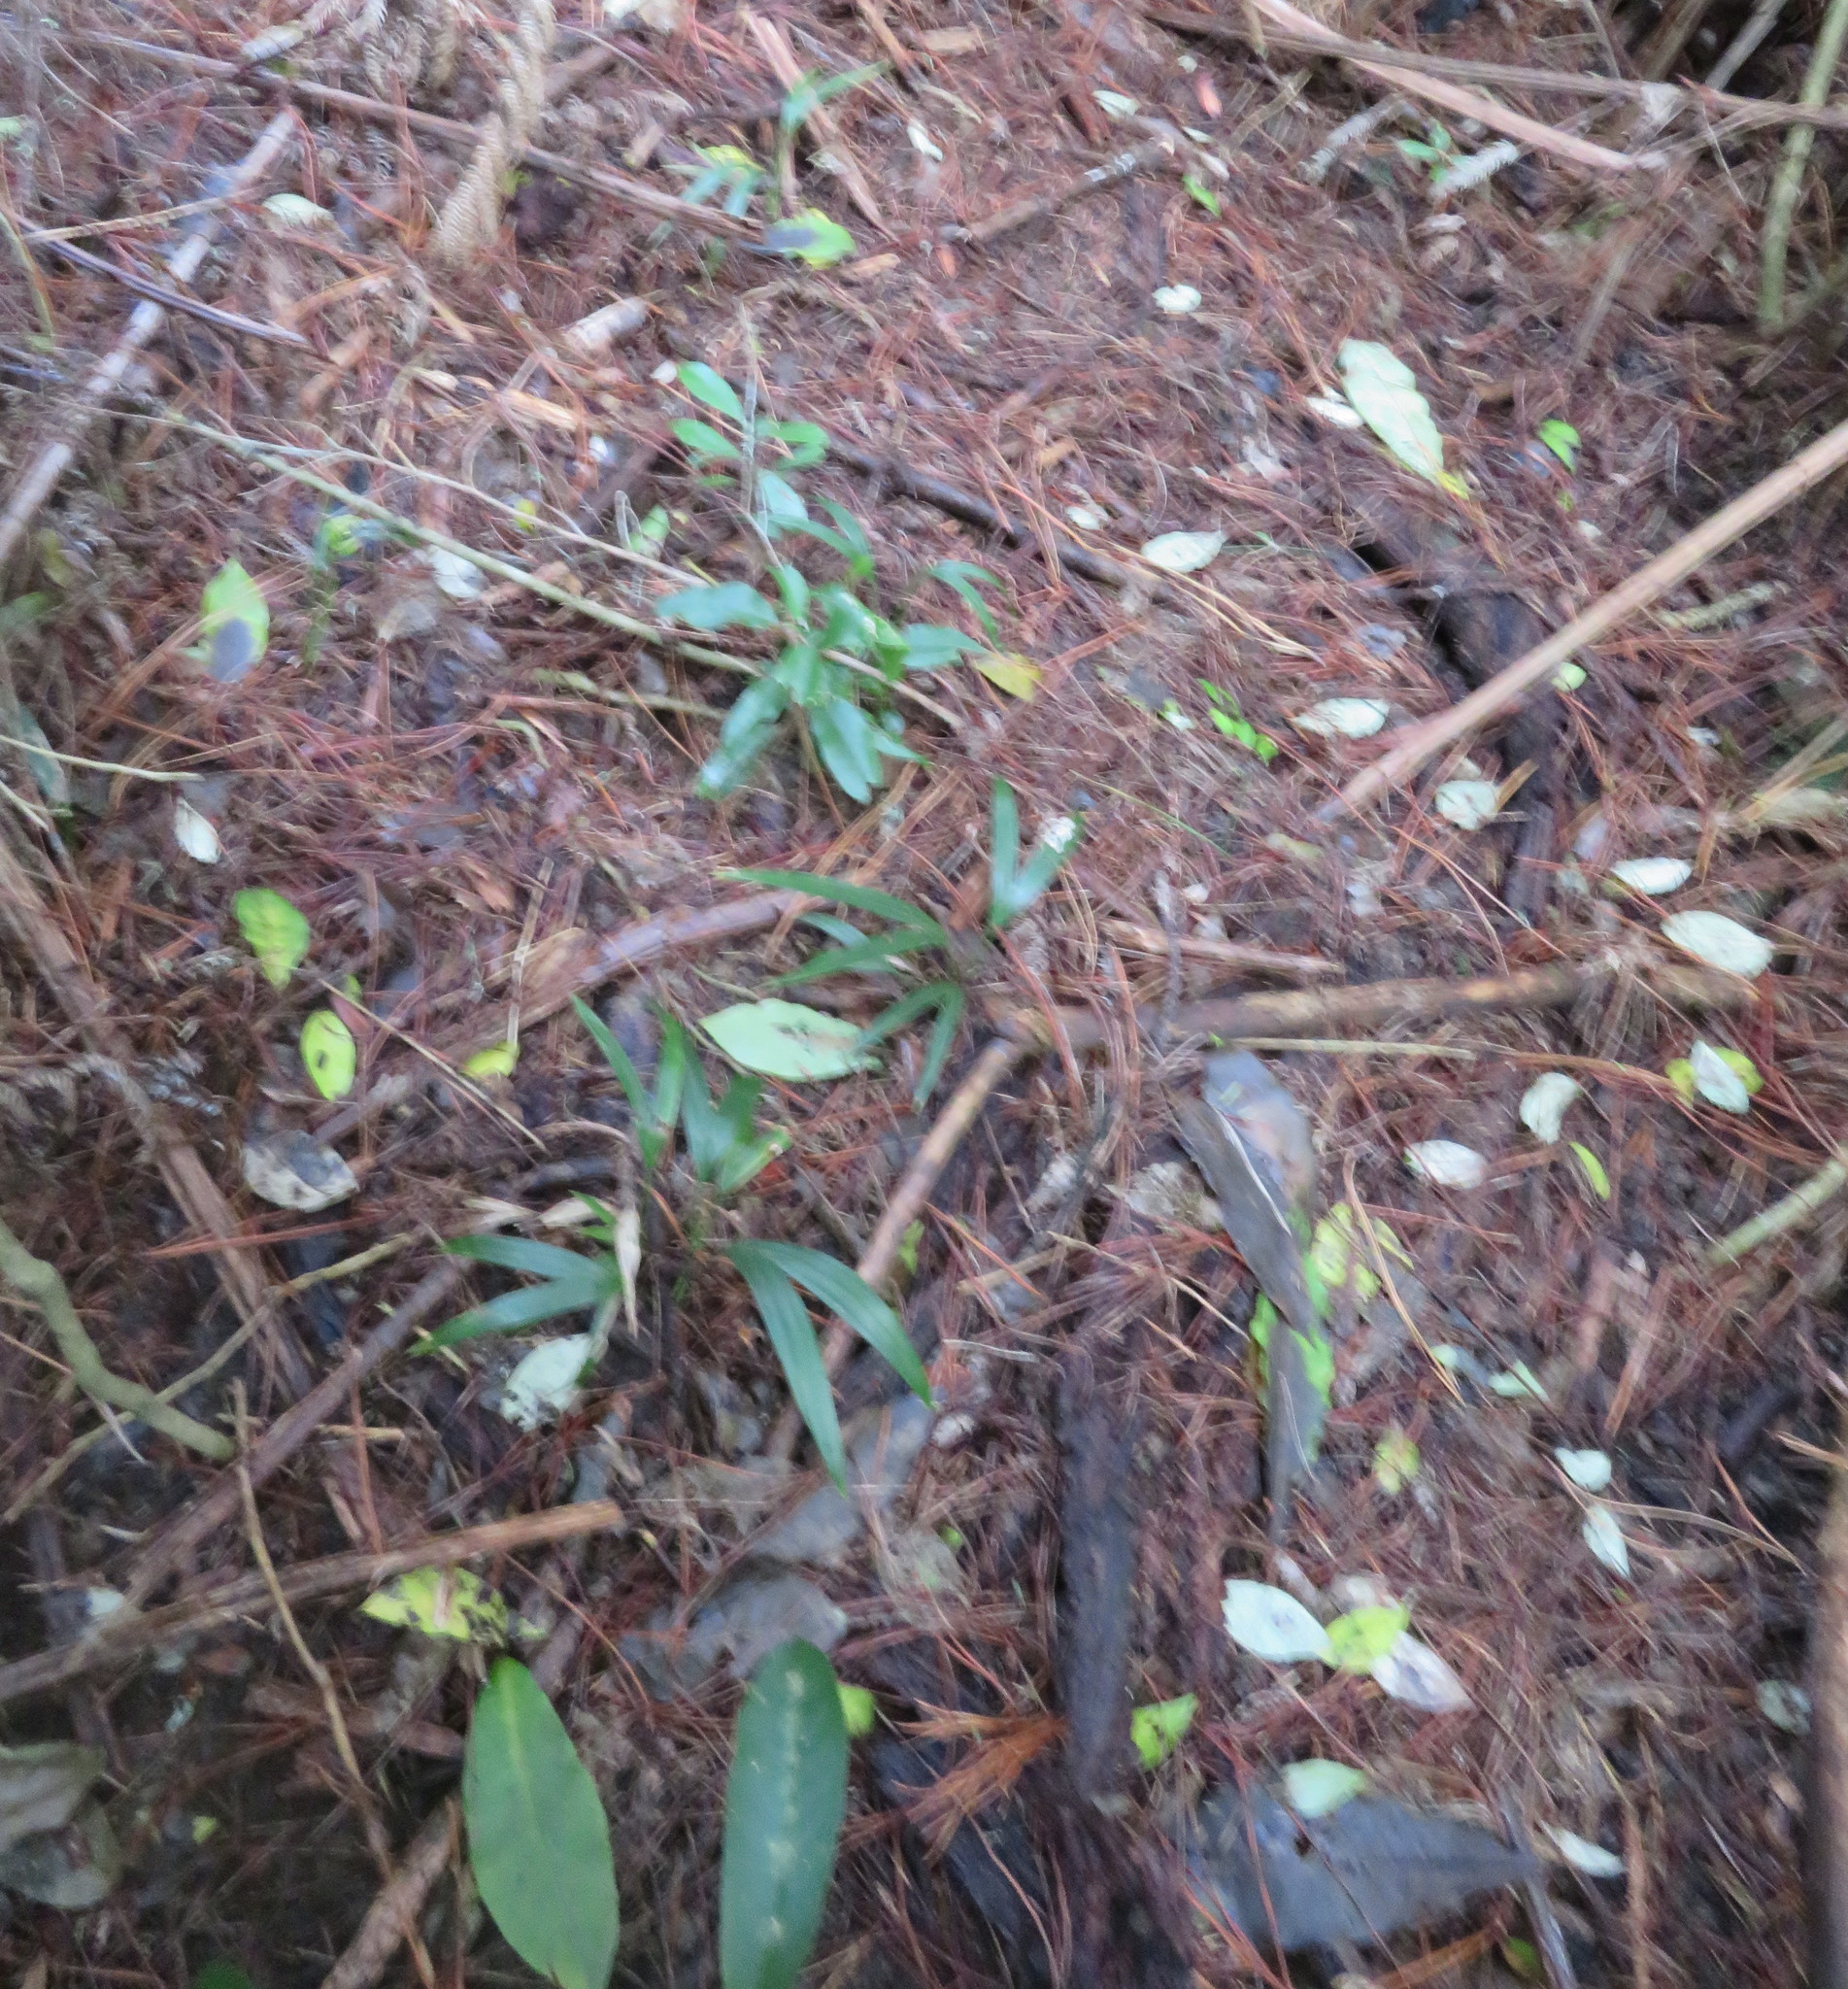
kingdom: Plantae
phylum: Tracheophyta
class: Liliopsida
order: Arecales
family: Arecaceae
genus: Rhopalostylis
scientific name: Rhopalostylis sapida
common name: Feather-duster palm
